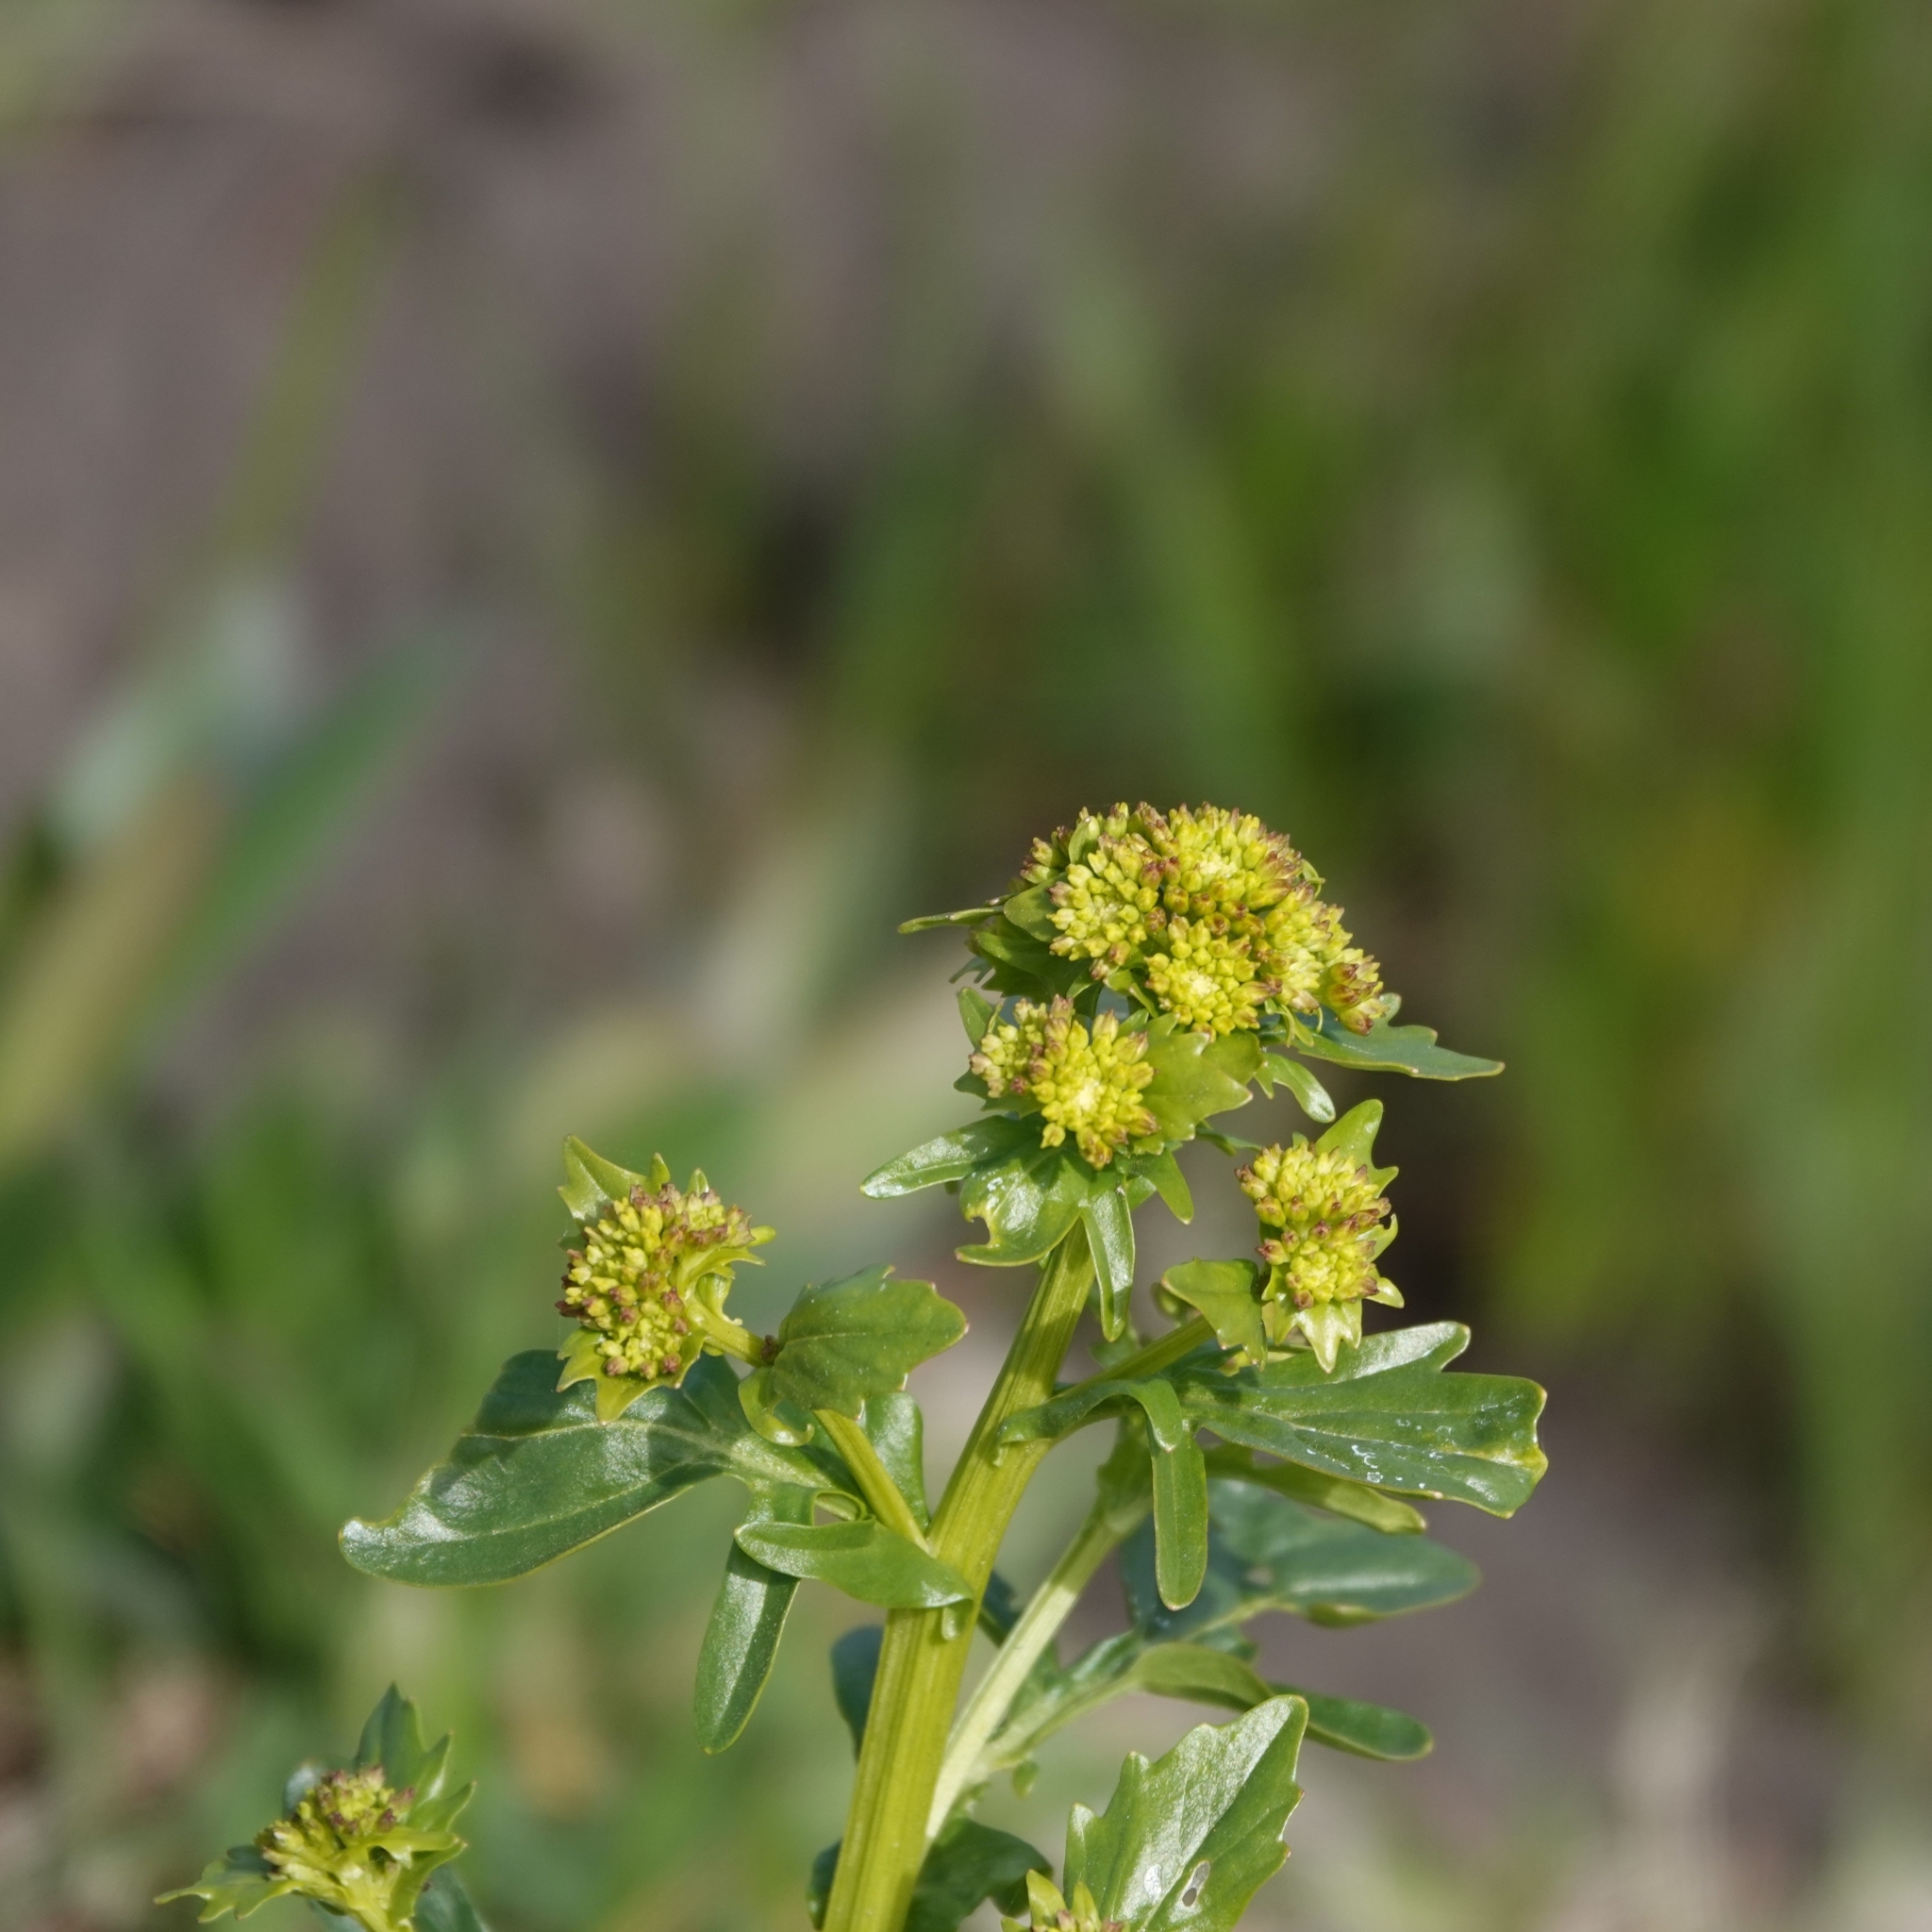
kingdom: Plantae
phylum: Tracheophyta
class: Magnoliopsida
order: Brassicales
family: Brassicaceae
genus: Barbarea
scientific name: Barbarea vulgaris
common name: Cressy-greens
